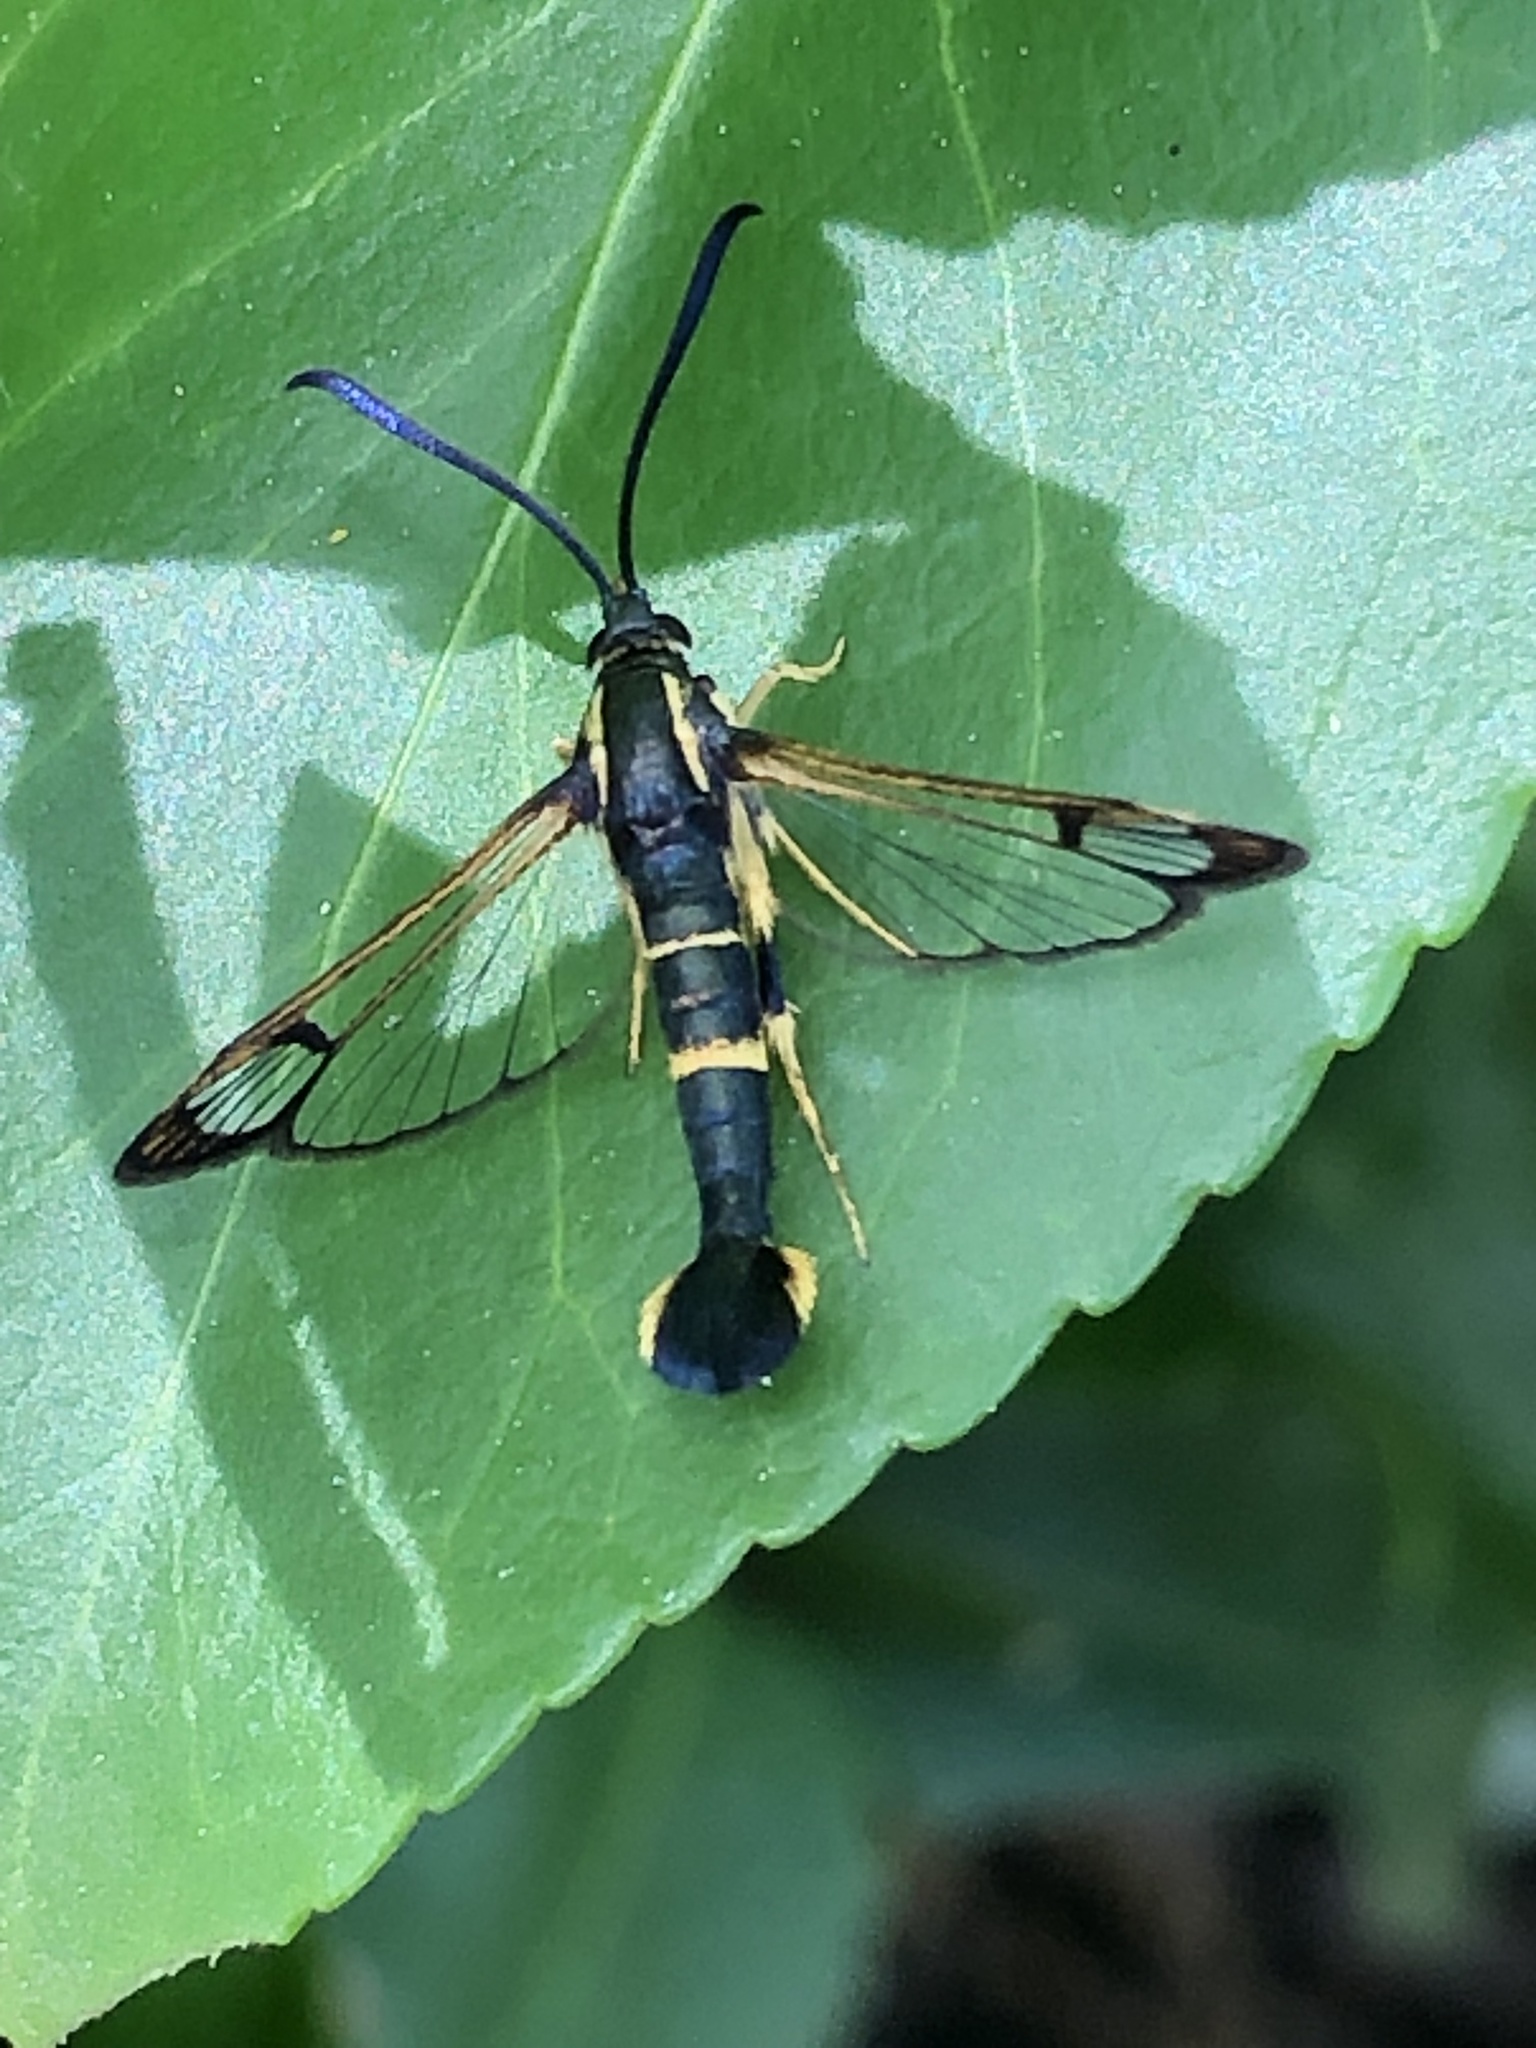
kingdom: Animalia
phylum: Arthropoda
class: Insecta
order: Lepidoptera
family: Sesiidae
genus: Synanthedon
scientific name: Synanthedon scitula
